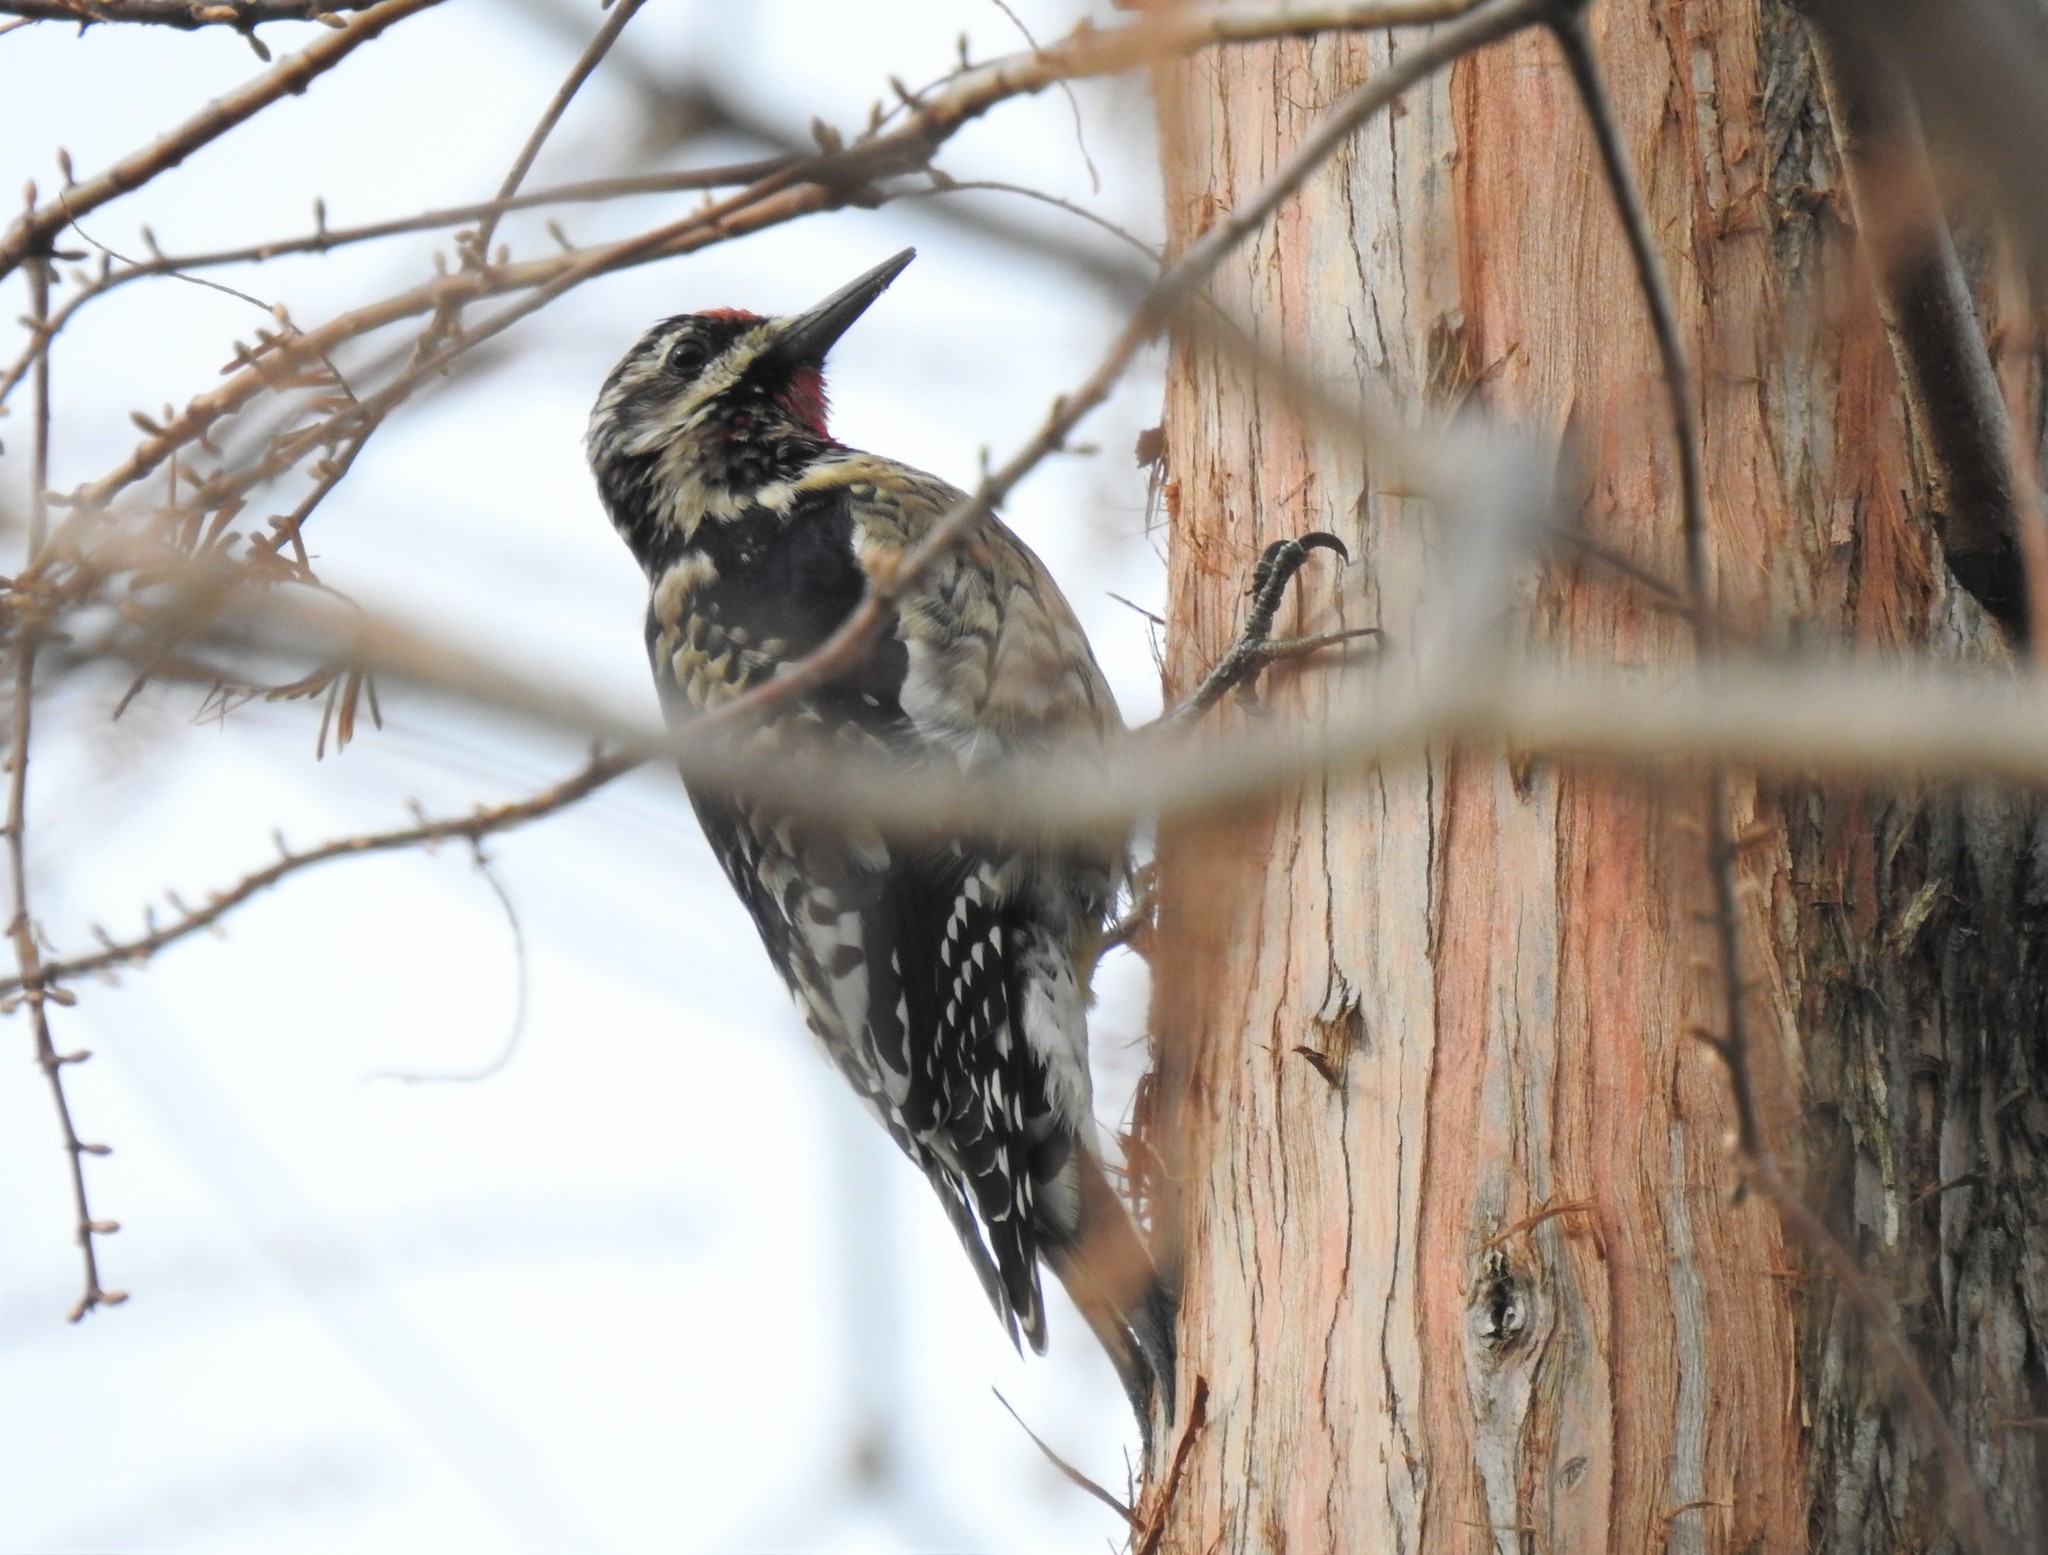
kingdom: Animalia
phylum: Chordata
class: Aves
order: Piciformes
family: Picidae
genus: Sphyrapicus
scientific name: Sphyrapicus varius
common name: Yellow-bellied sapsucker
